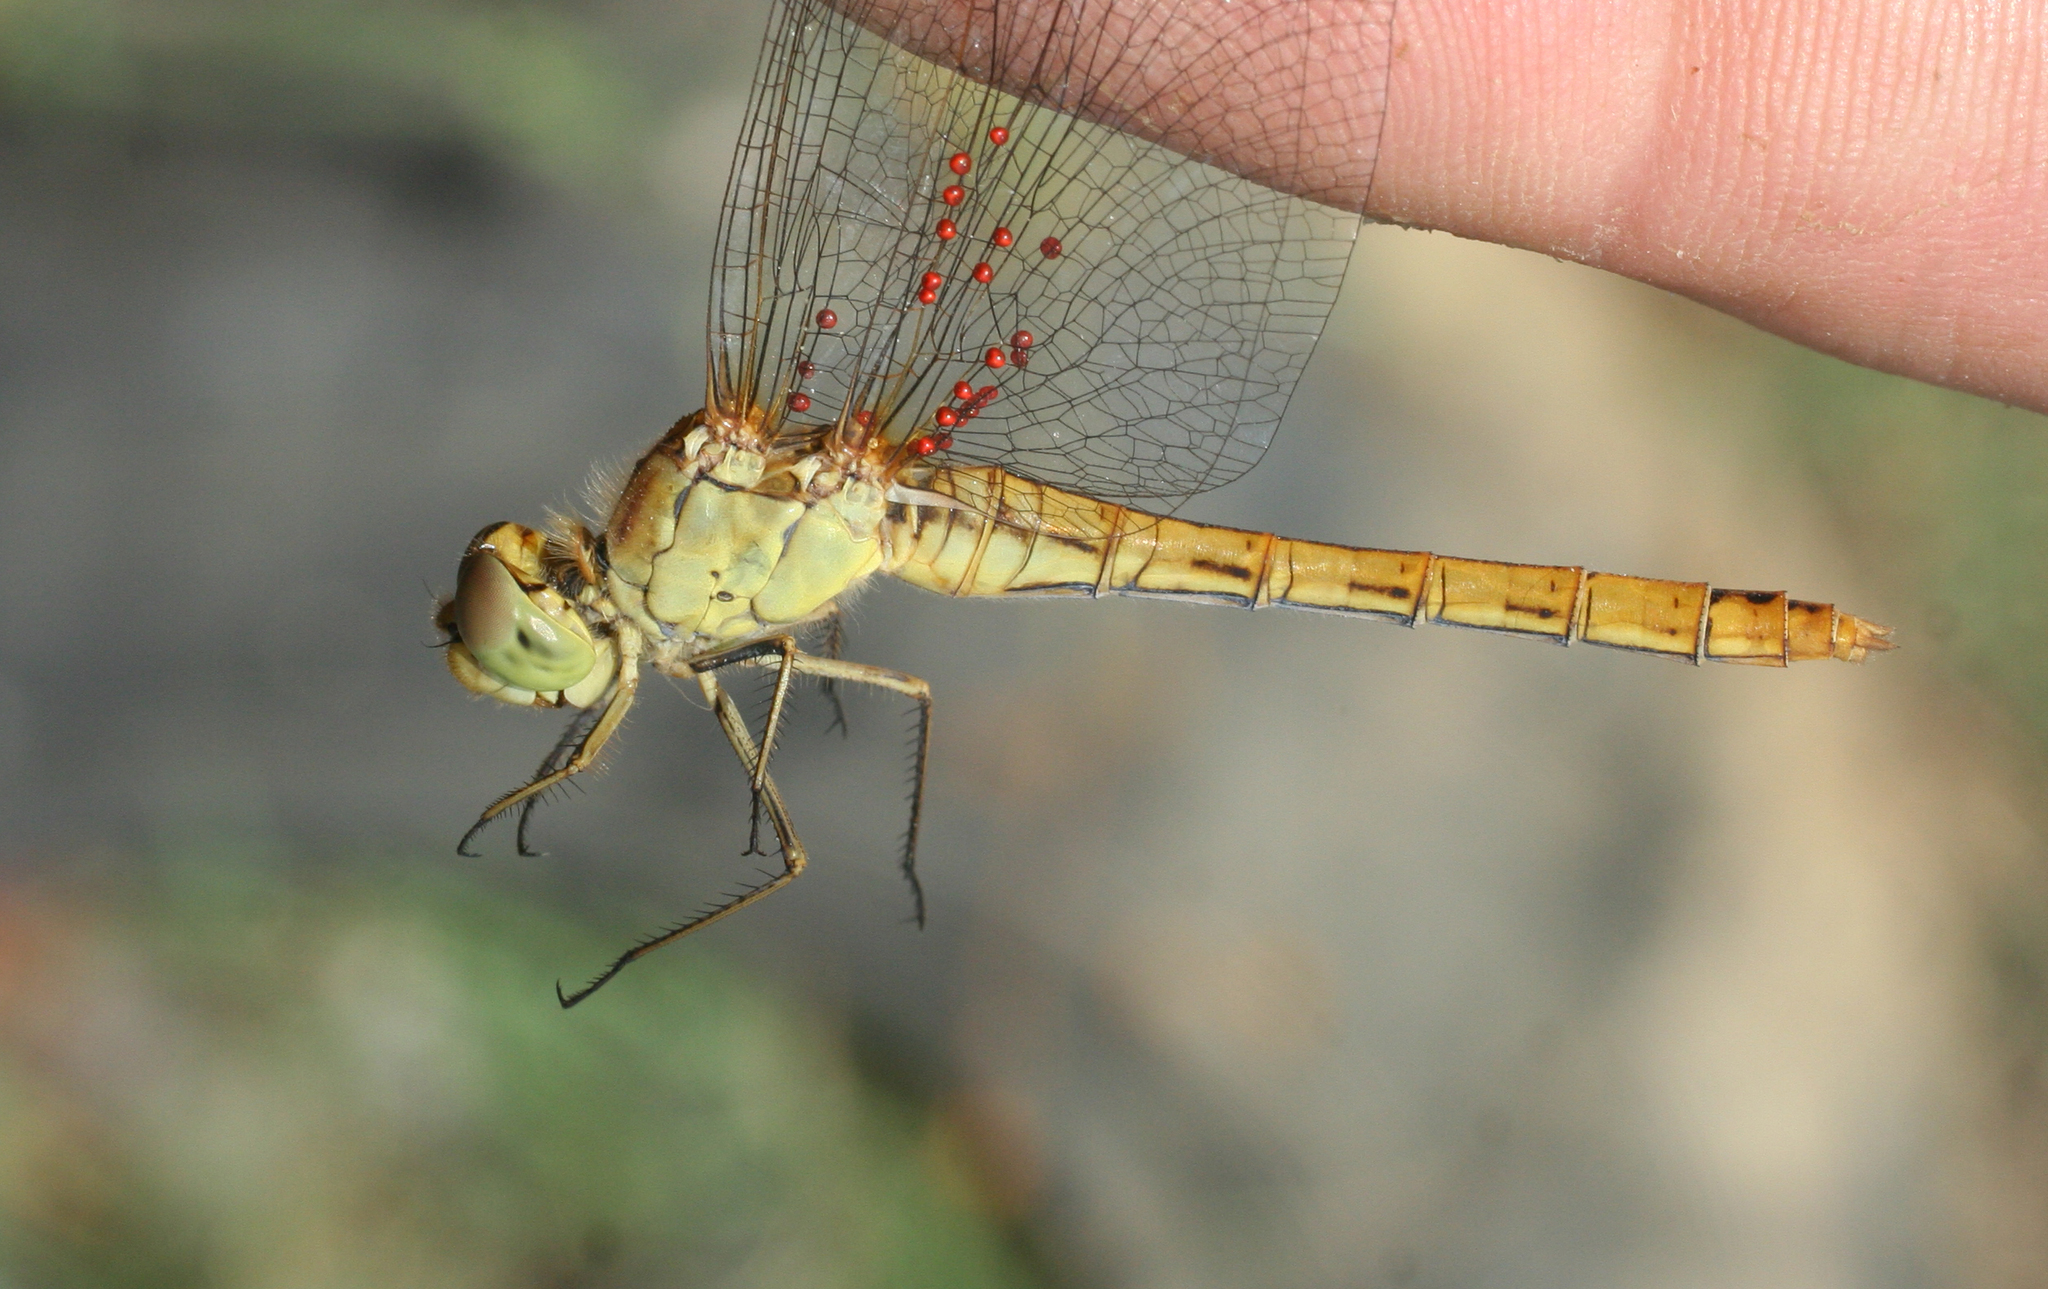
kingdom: Animalia
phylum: Arthropoda
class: Insecta
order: Odonata
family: Libellulidae
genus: Sympetrum
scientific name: Sympetrum meridionale
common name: Southern darter
